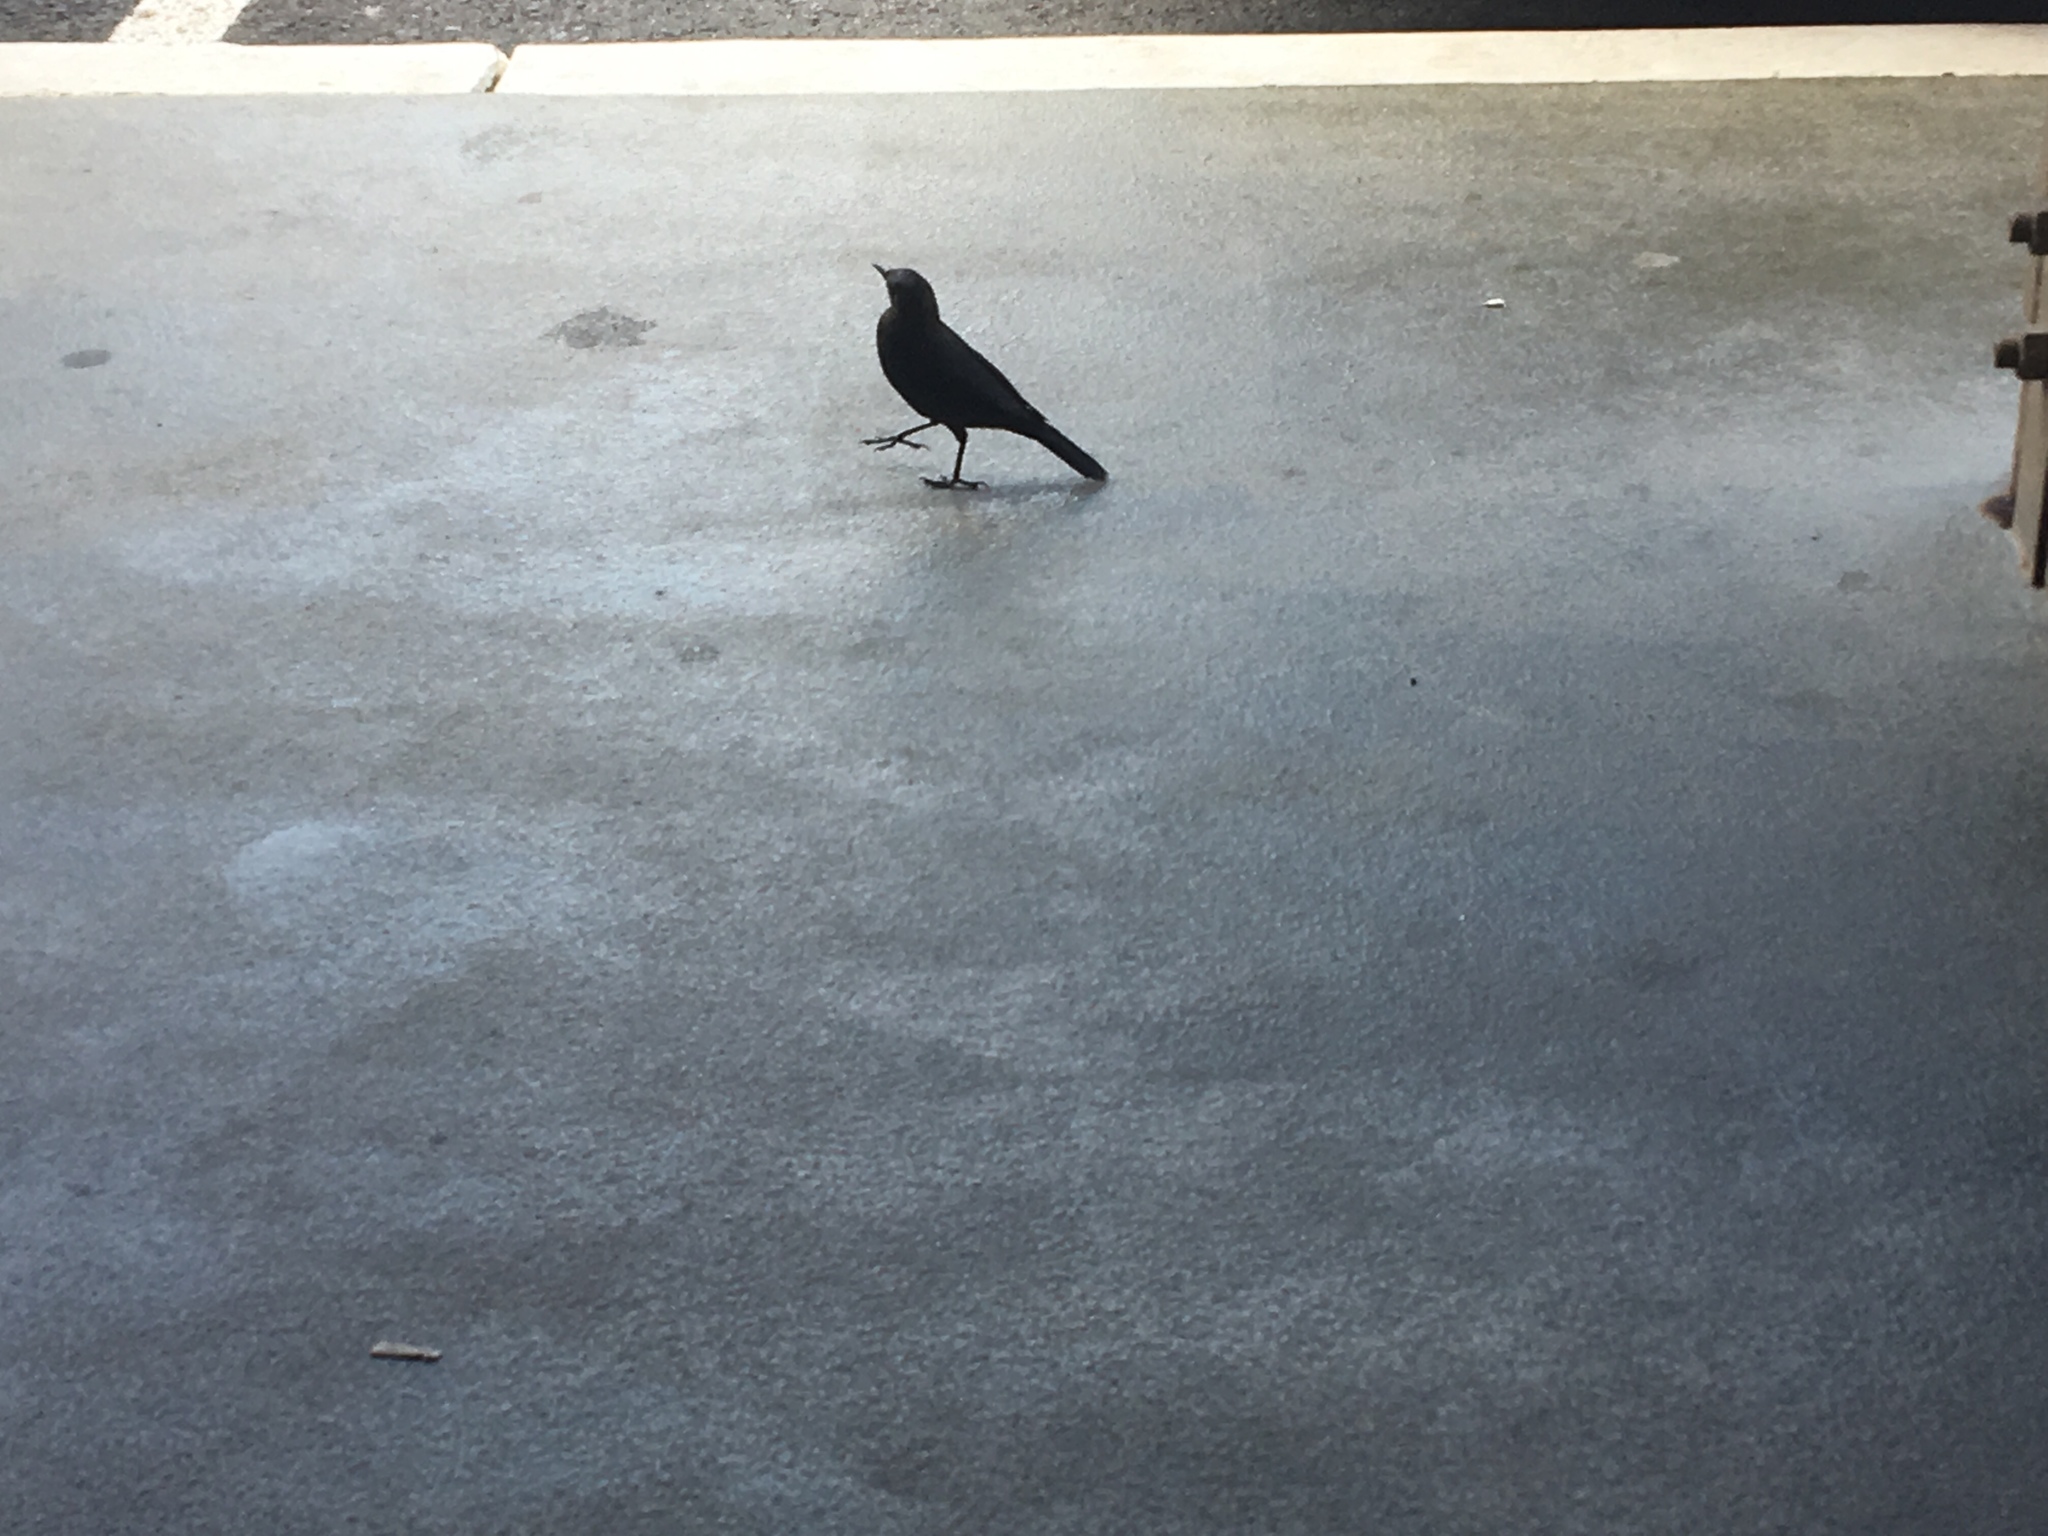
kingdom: Animalia
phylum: Chordata
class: Aves
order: Passeriformes
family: Icteridae
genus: Euphagus
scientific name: Euphagus cyanocephalus
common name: Brewer's blackbird
